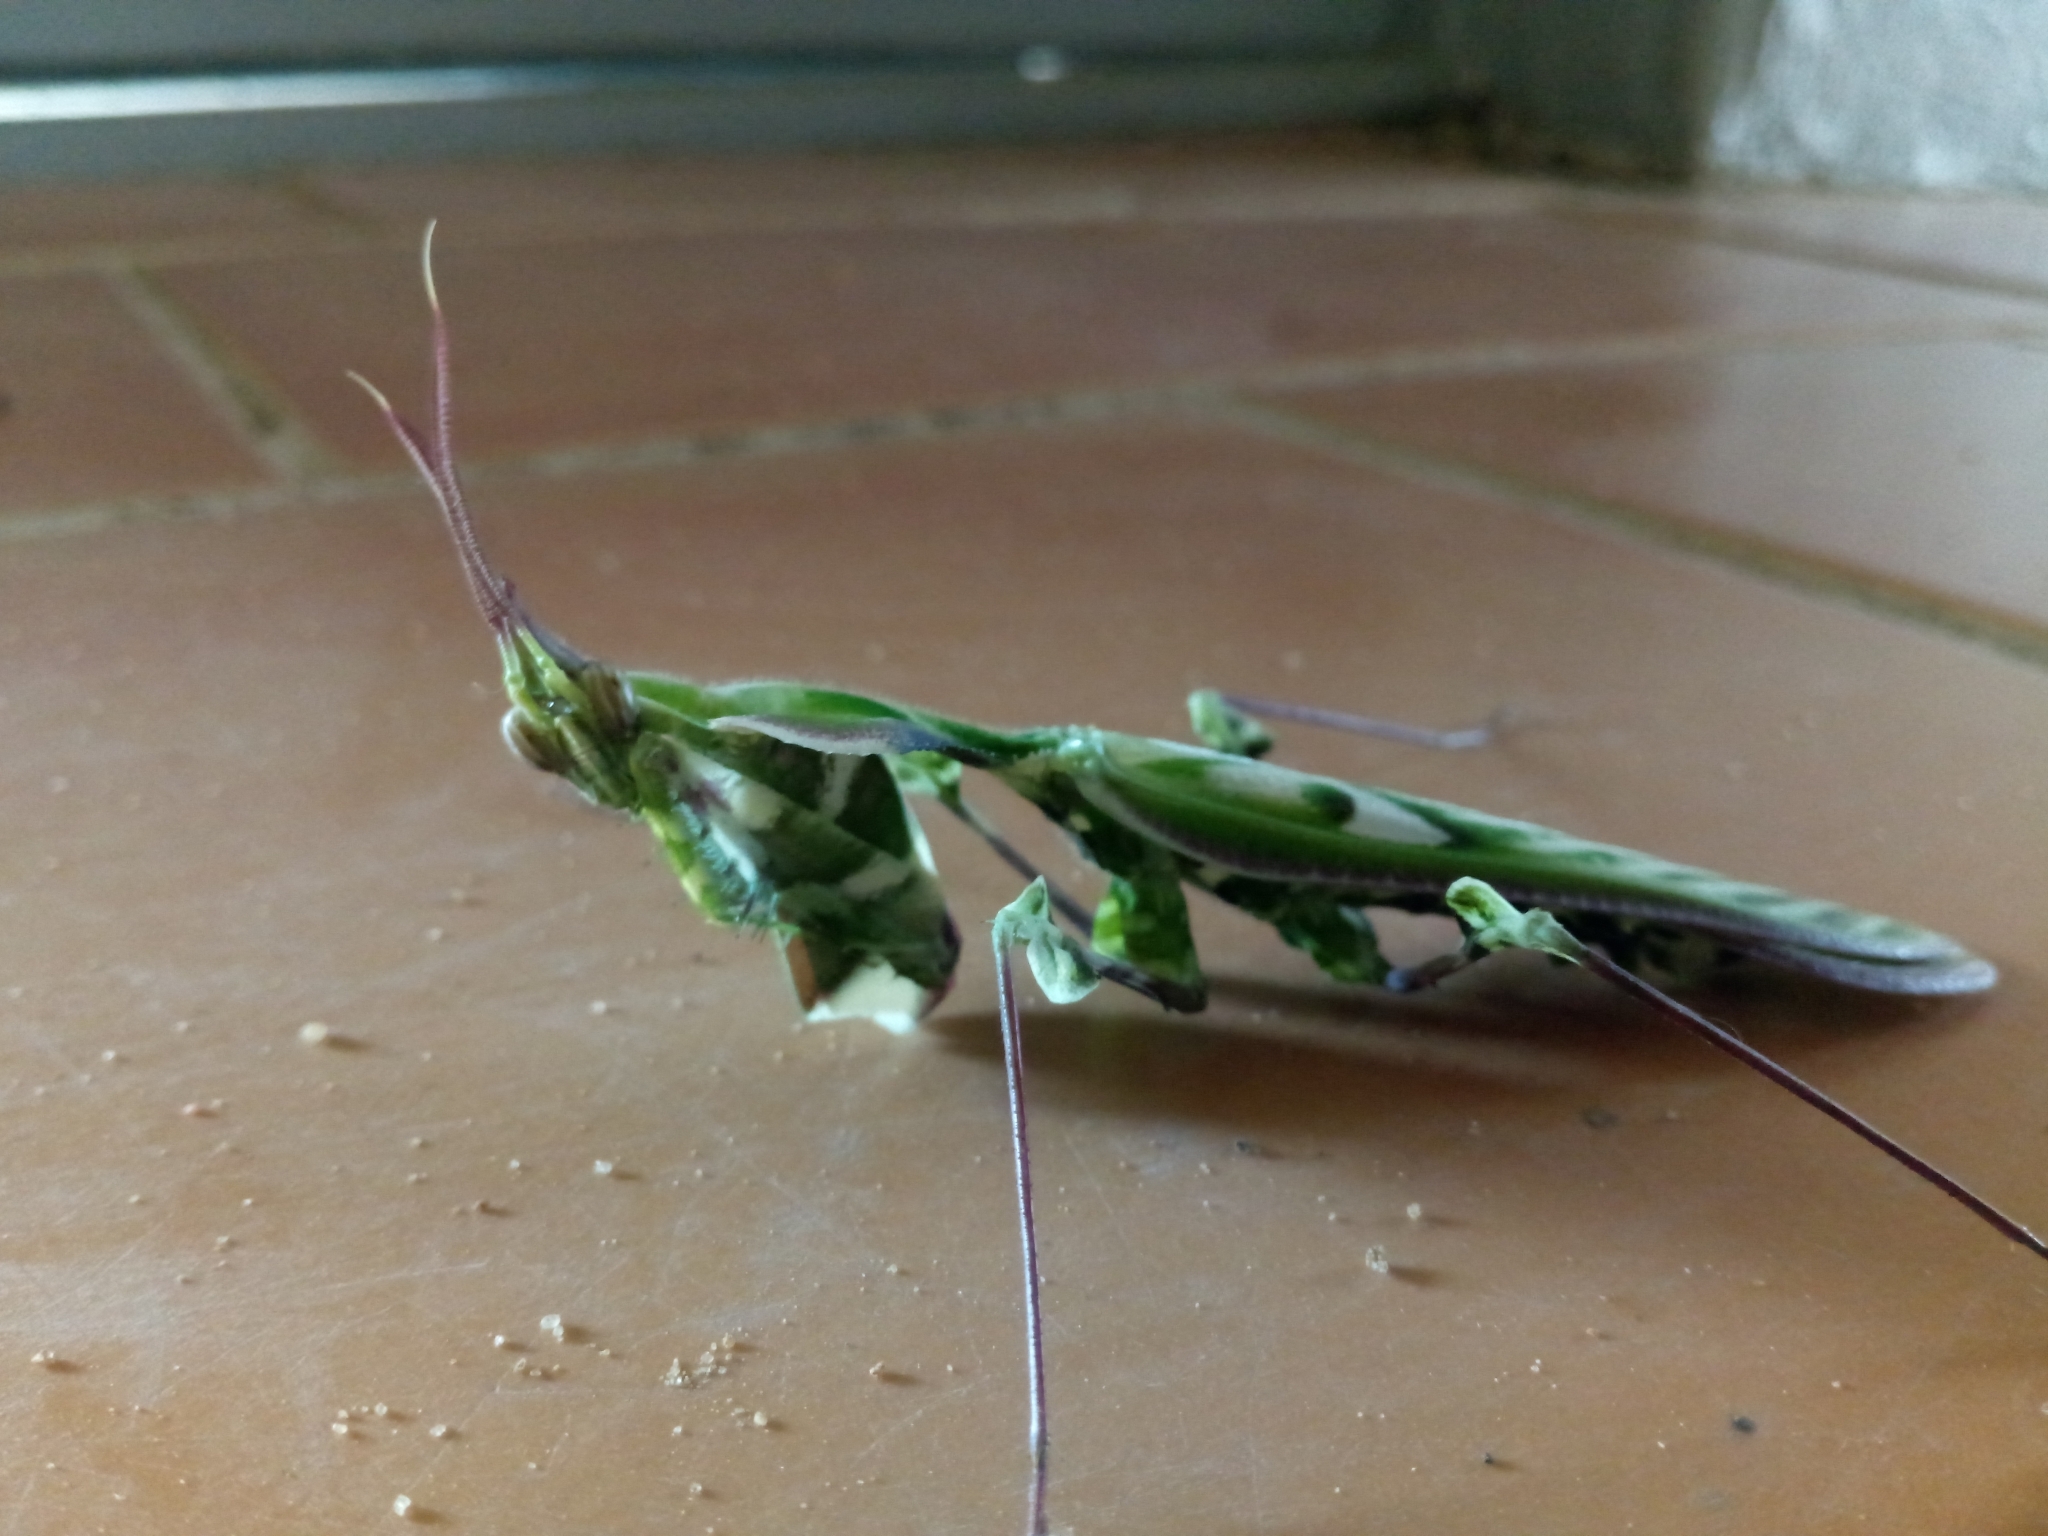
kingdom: Animalia
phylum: Arthropoda
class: Insecta
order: Mantodea
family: Empusidae
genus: Idolomantis
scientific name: Idolomantis diabolica
